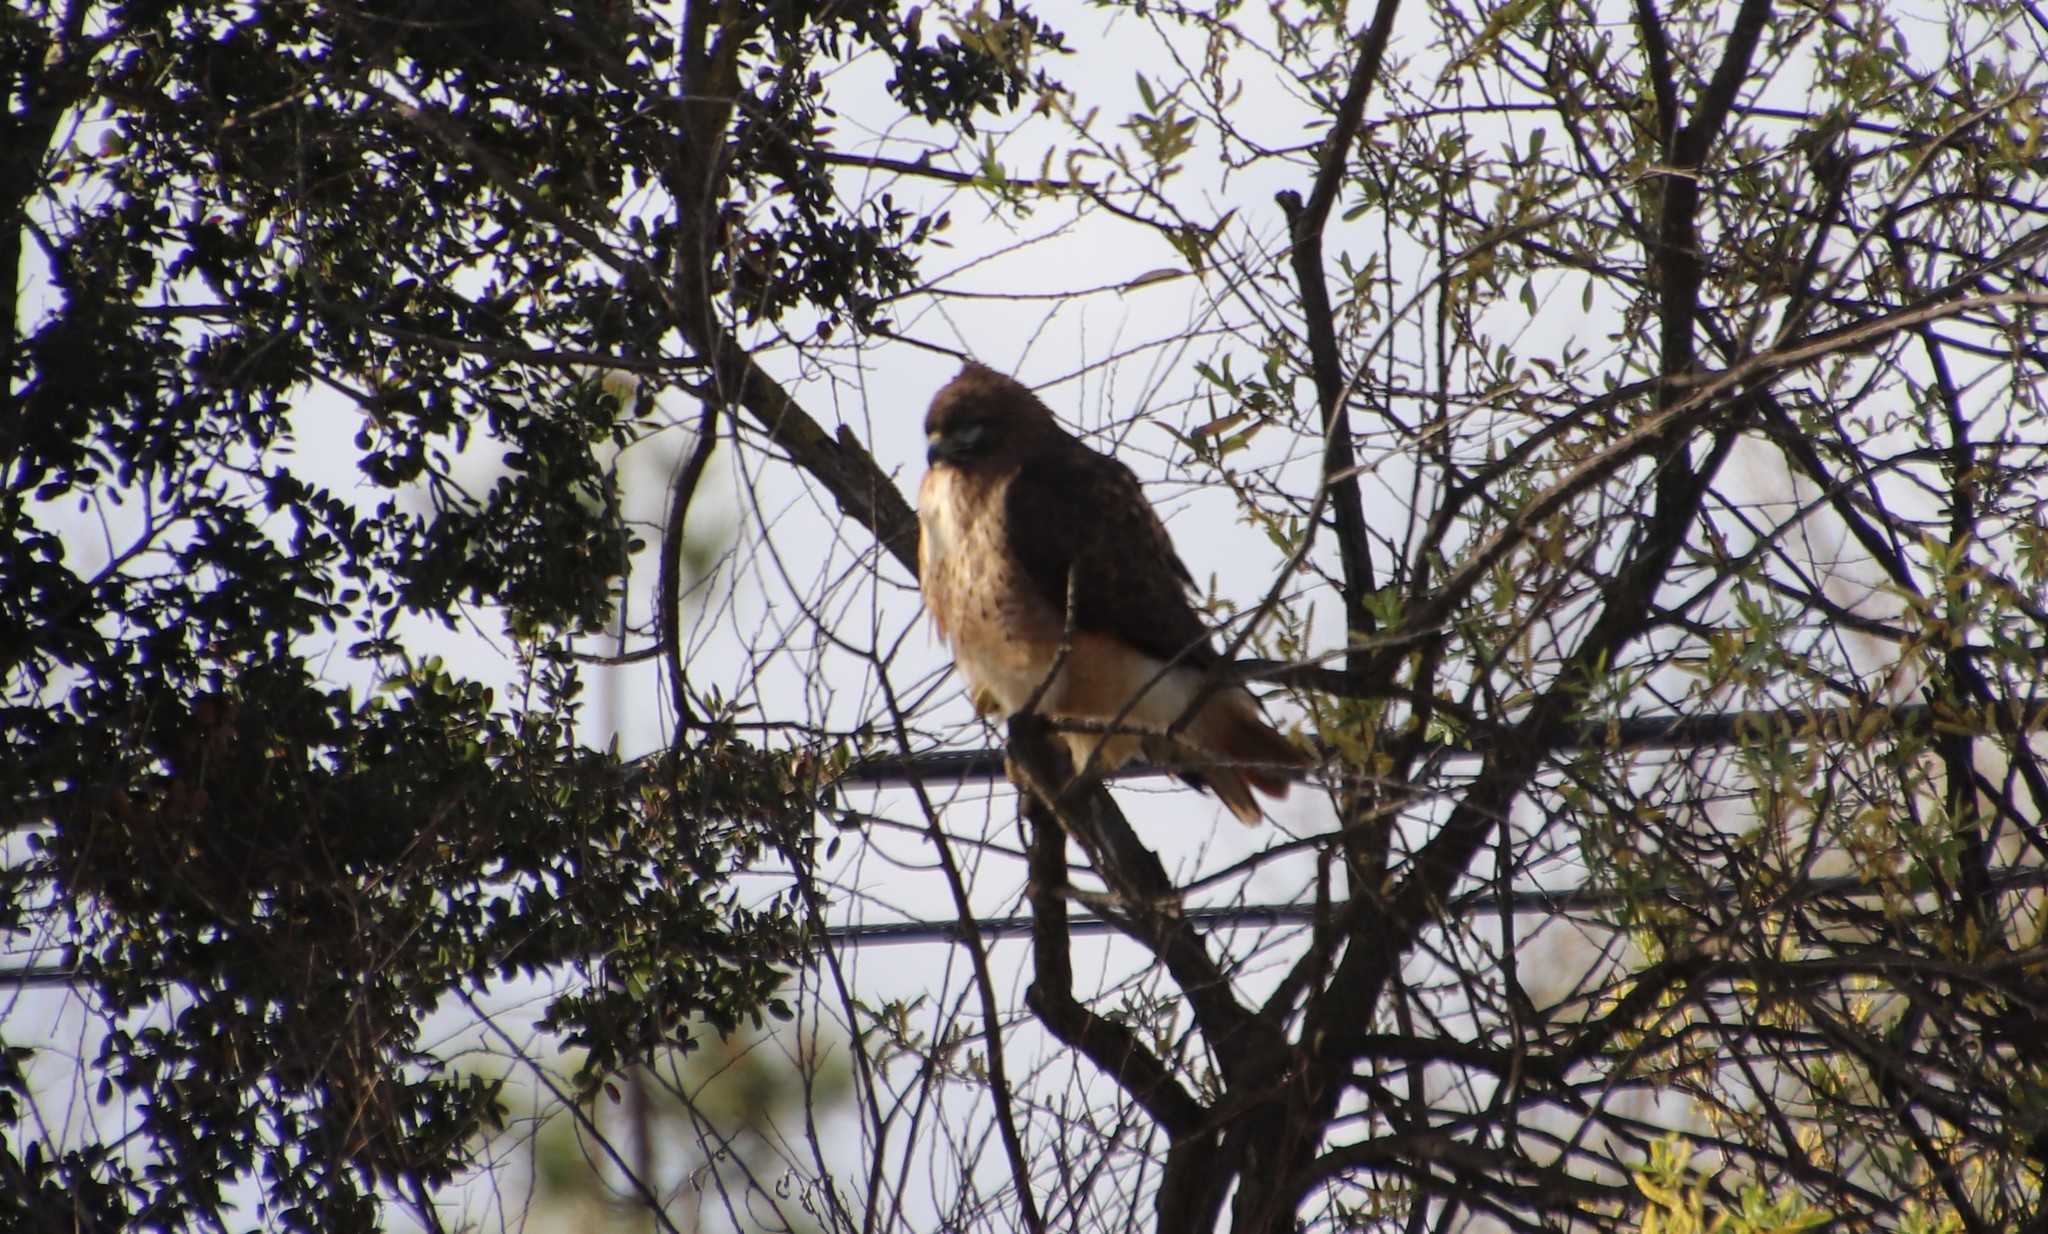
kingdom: Animalia
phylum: Chordata
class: Aves
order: Accipitriformes
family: Accipitridae
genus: Buteo
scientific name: Buteo jamaicensis
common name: Red-tailed hawk
